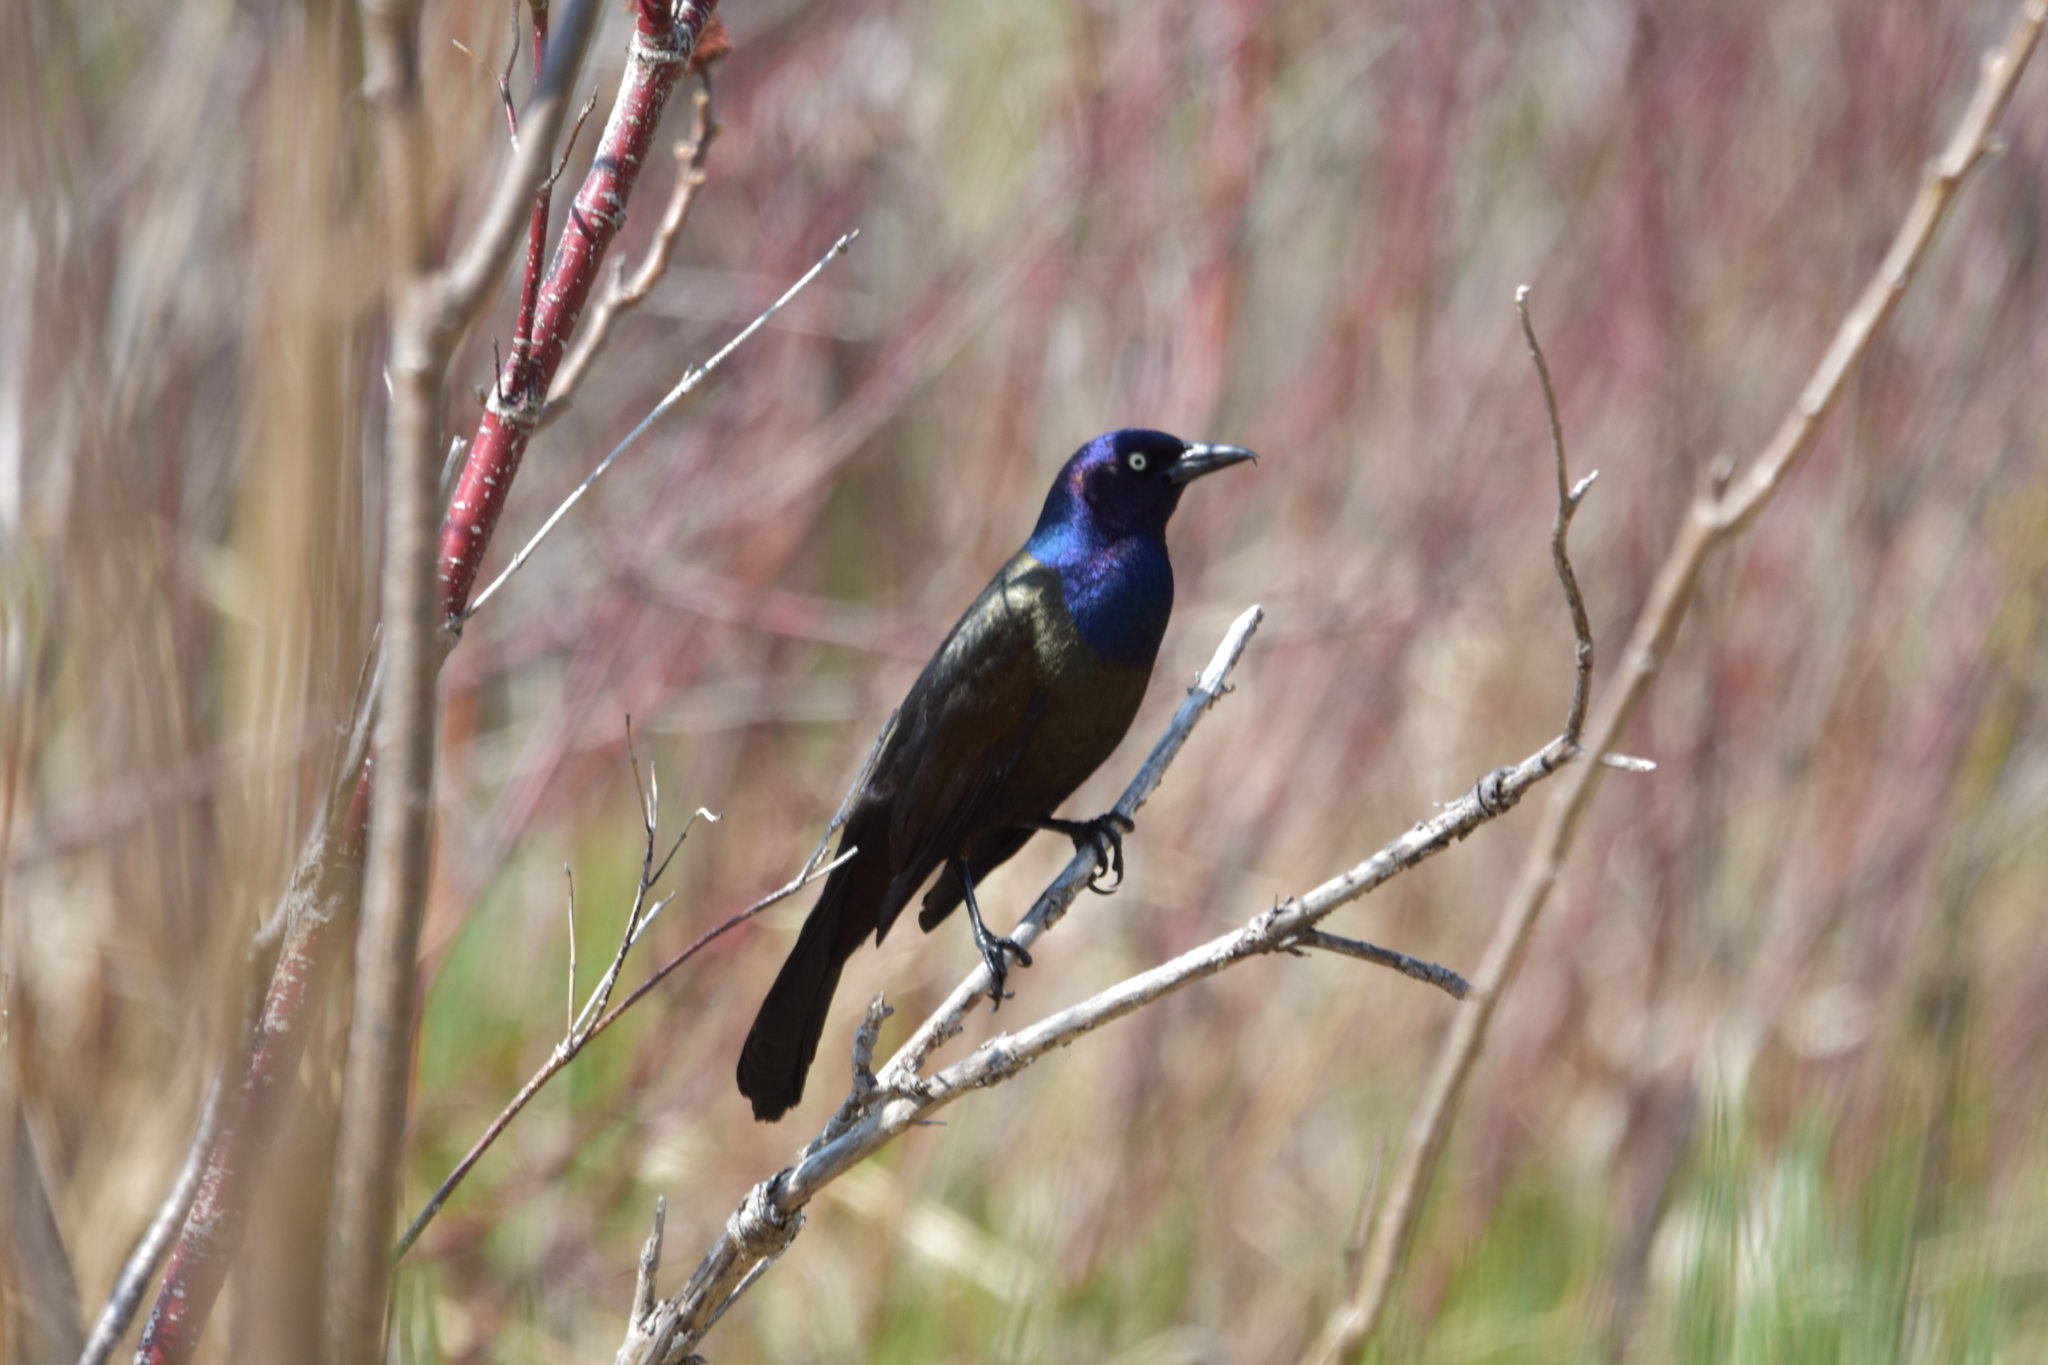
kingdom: Animalia
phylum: Chordata
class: Aves
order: Passeriformes
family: Icteridae
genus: Quiscalus
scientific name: Quiscalus quiscula
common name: Common grackle
